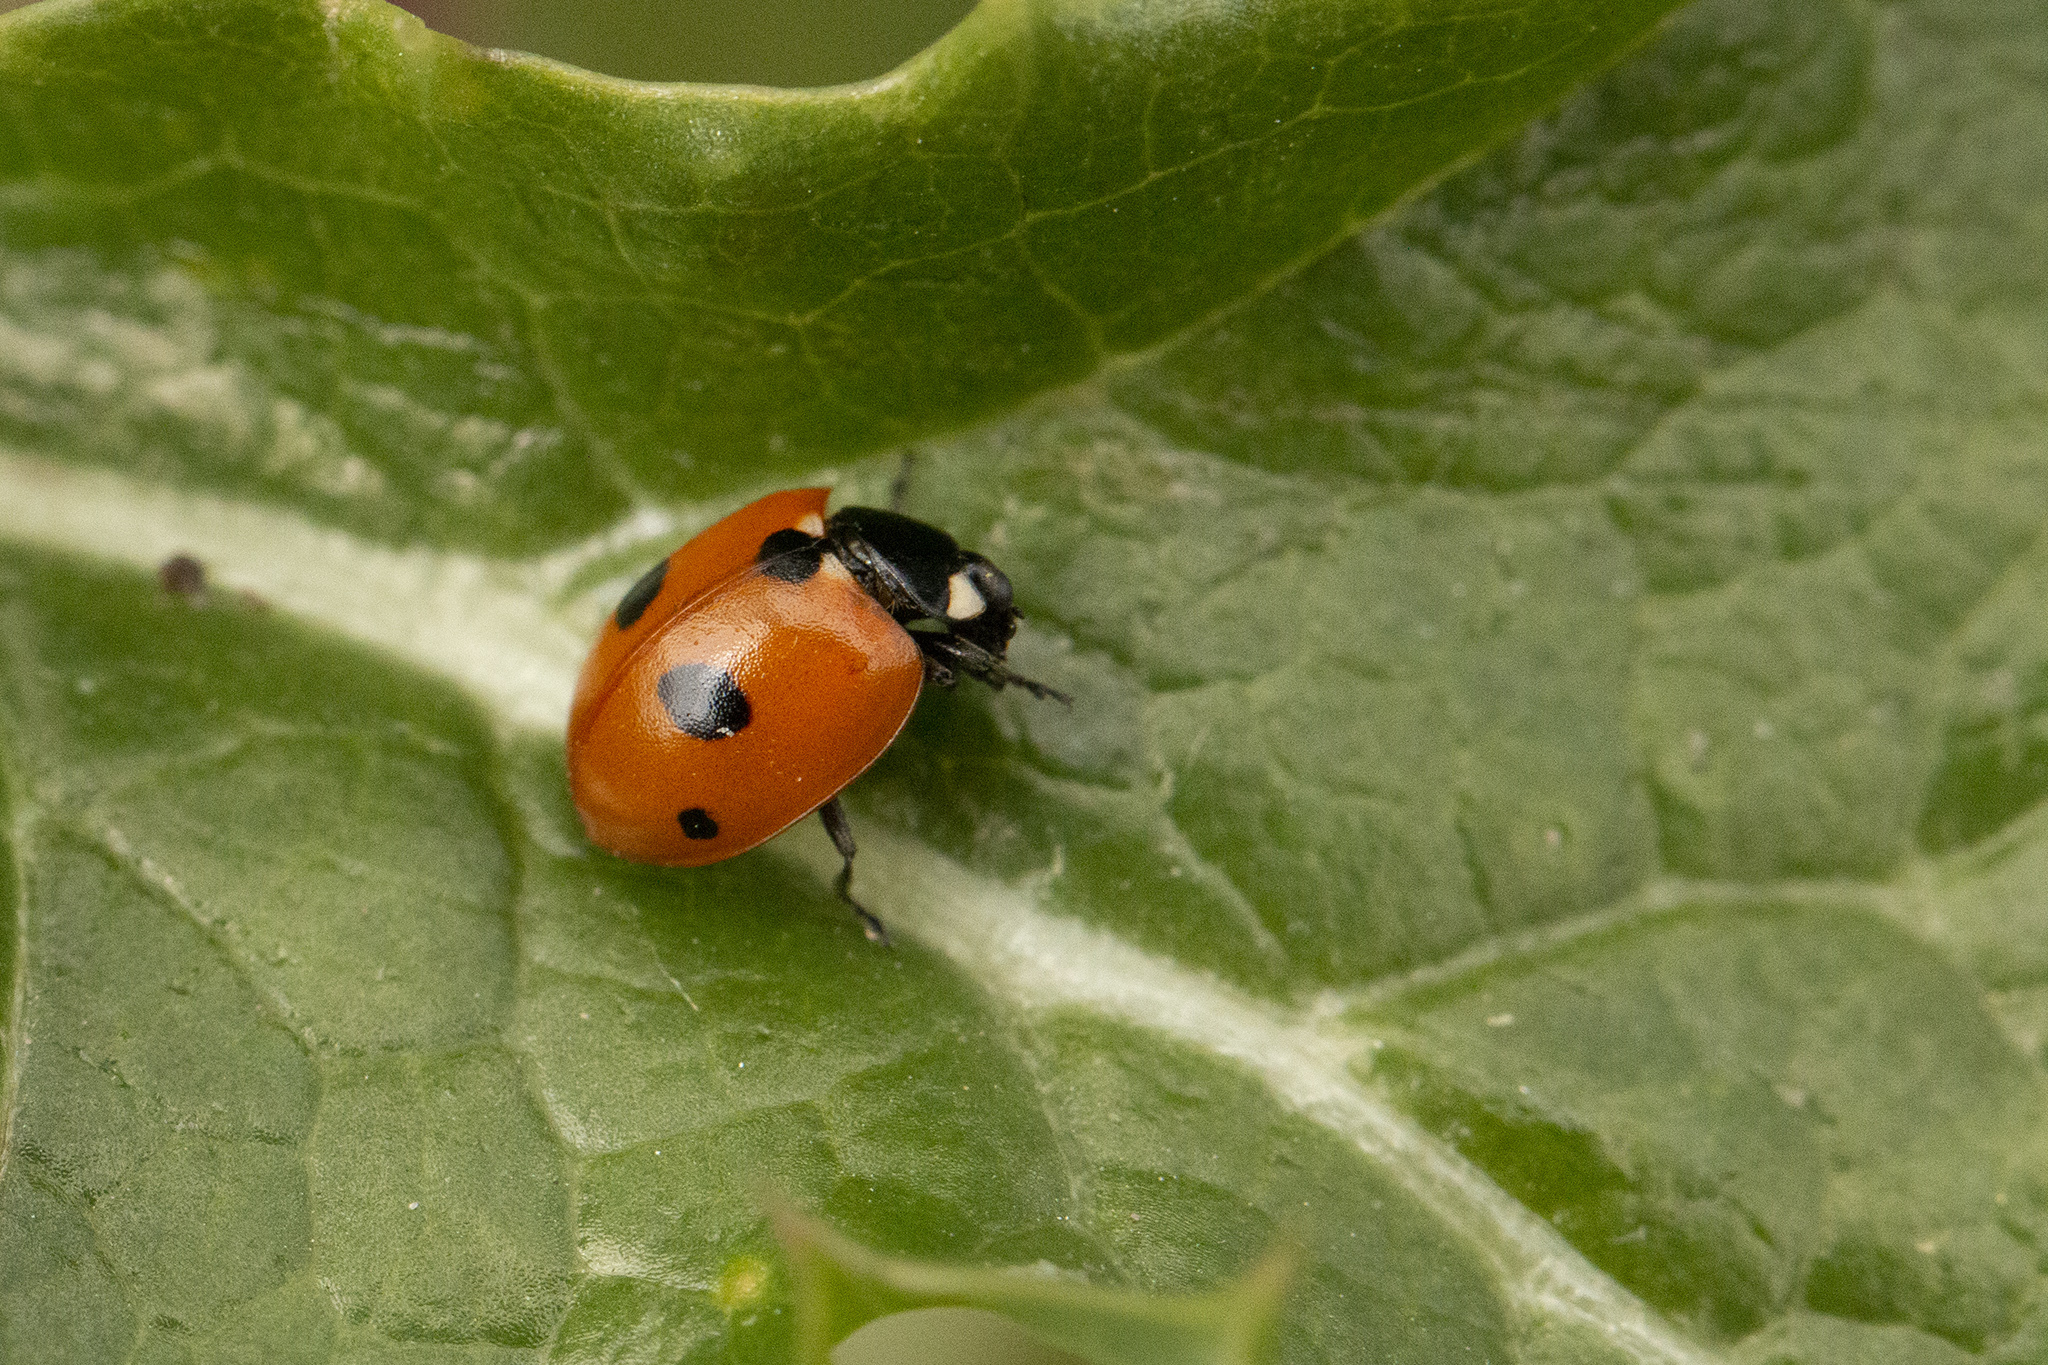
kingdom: Animalia
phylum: Arthropoda
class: Insecta
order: Coleoptera
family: Coccinellidae
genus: Coccinella
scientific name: Coccinella quinquepunctata
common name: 5-spot ladybird
